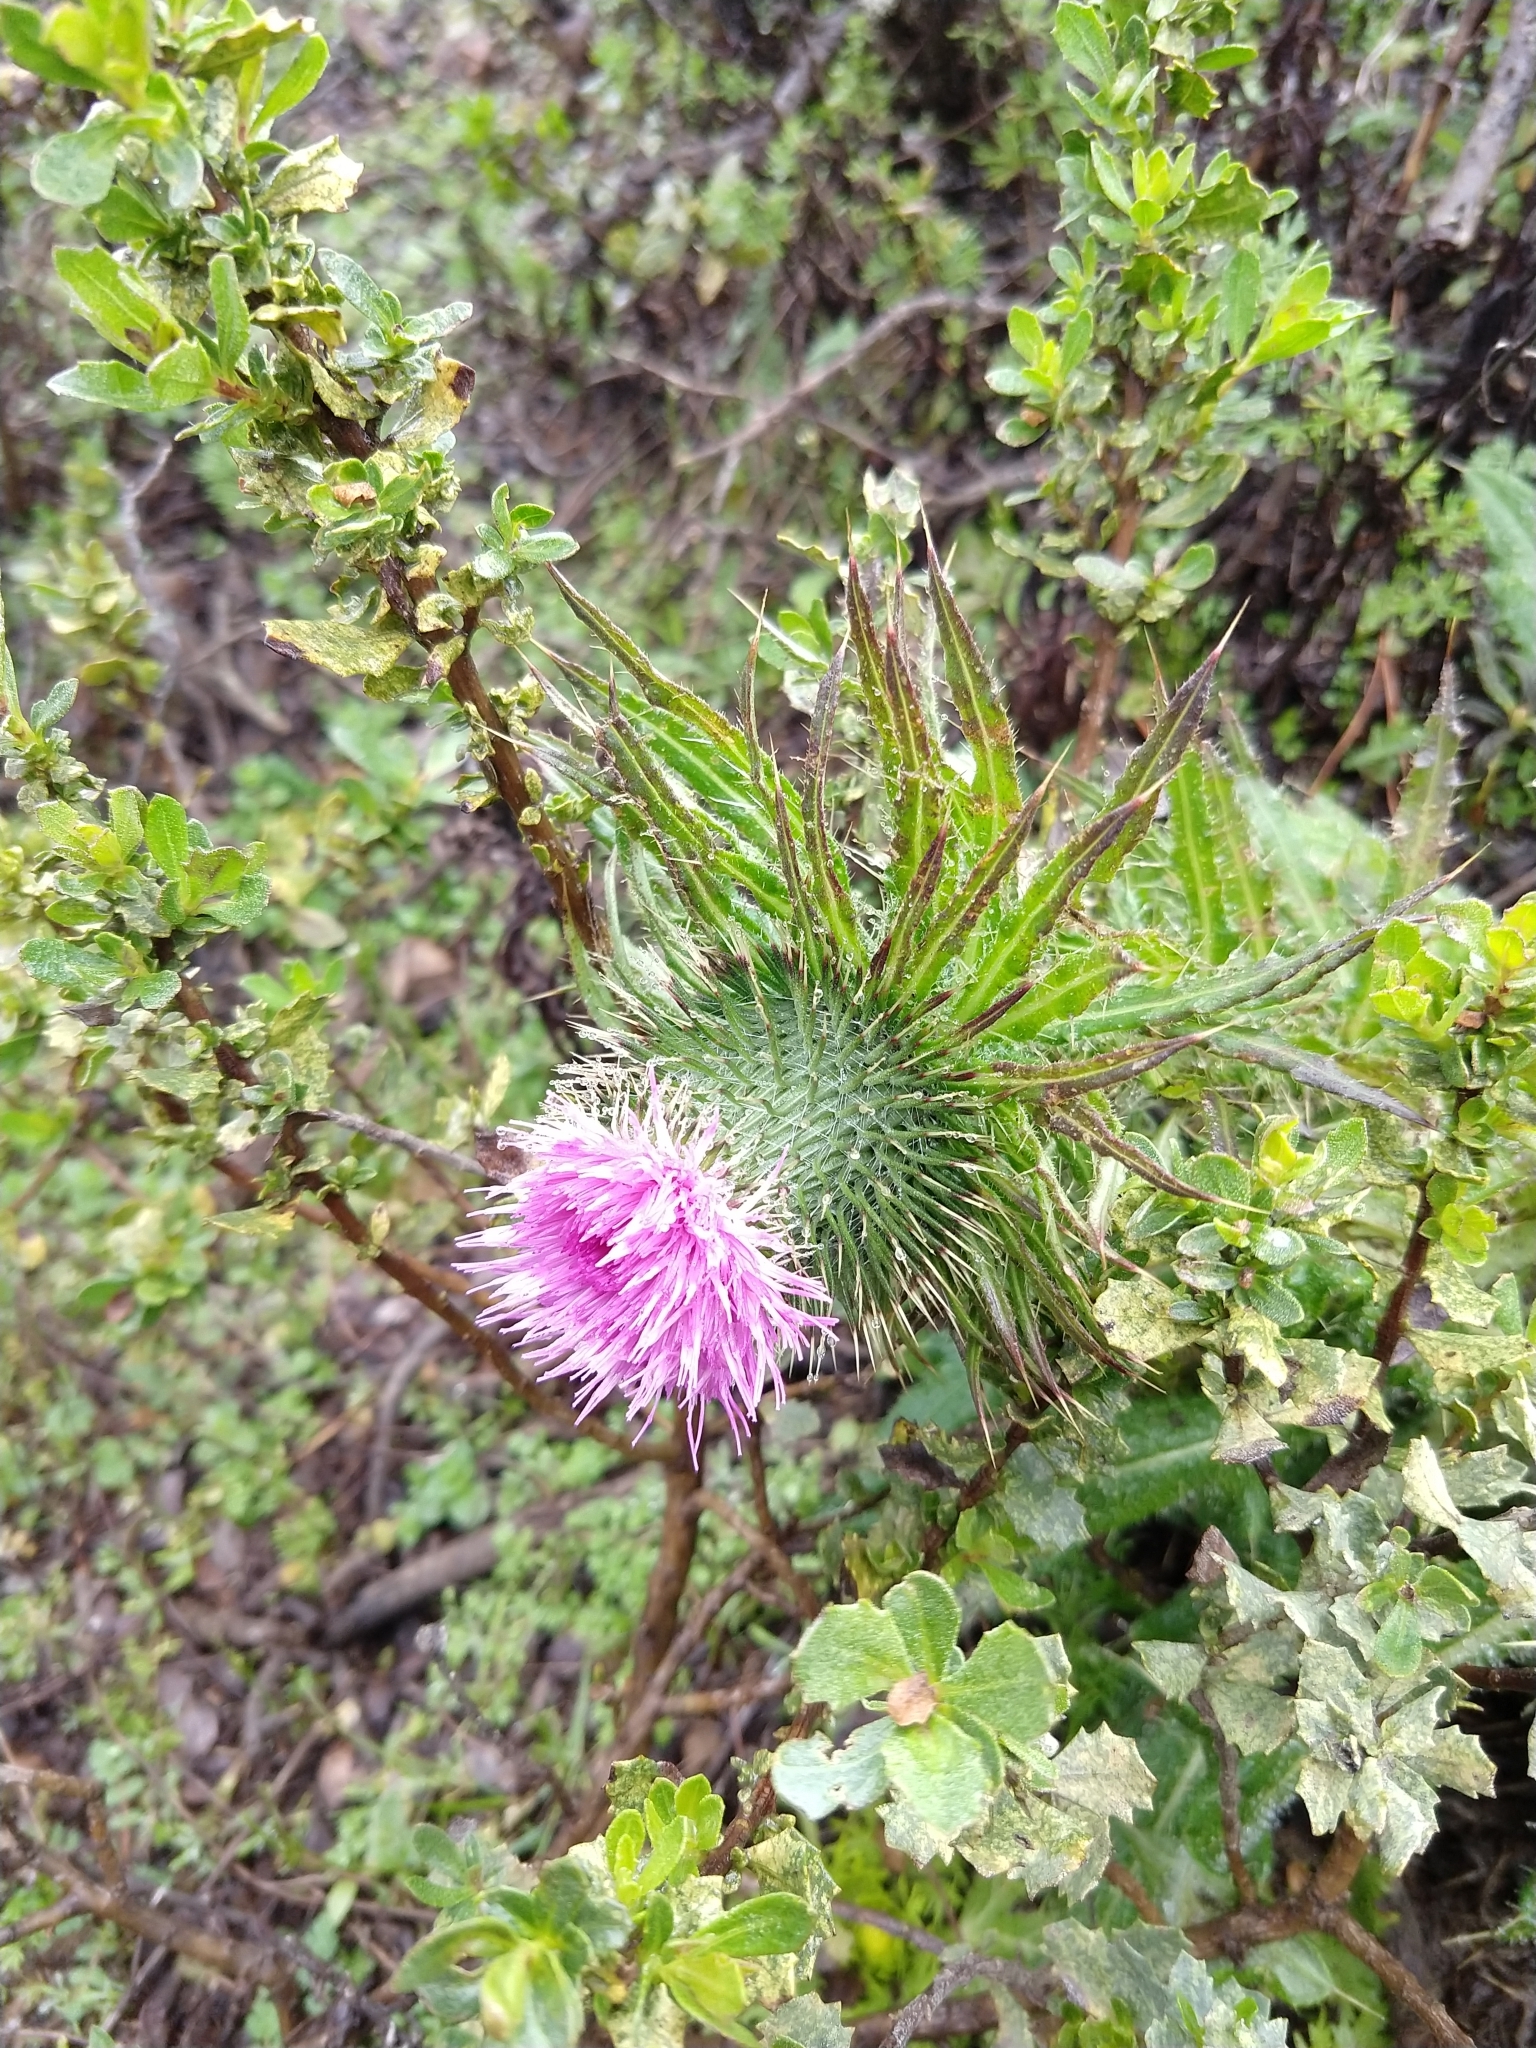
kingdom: Plantae
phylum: Tracheophyta
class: Magnoliopsida
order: Asterales
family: Asteraceae
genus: Cirsium
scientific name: Cirsium vulgare
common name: Bull thistle
